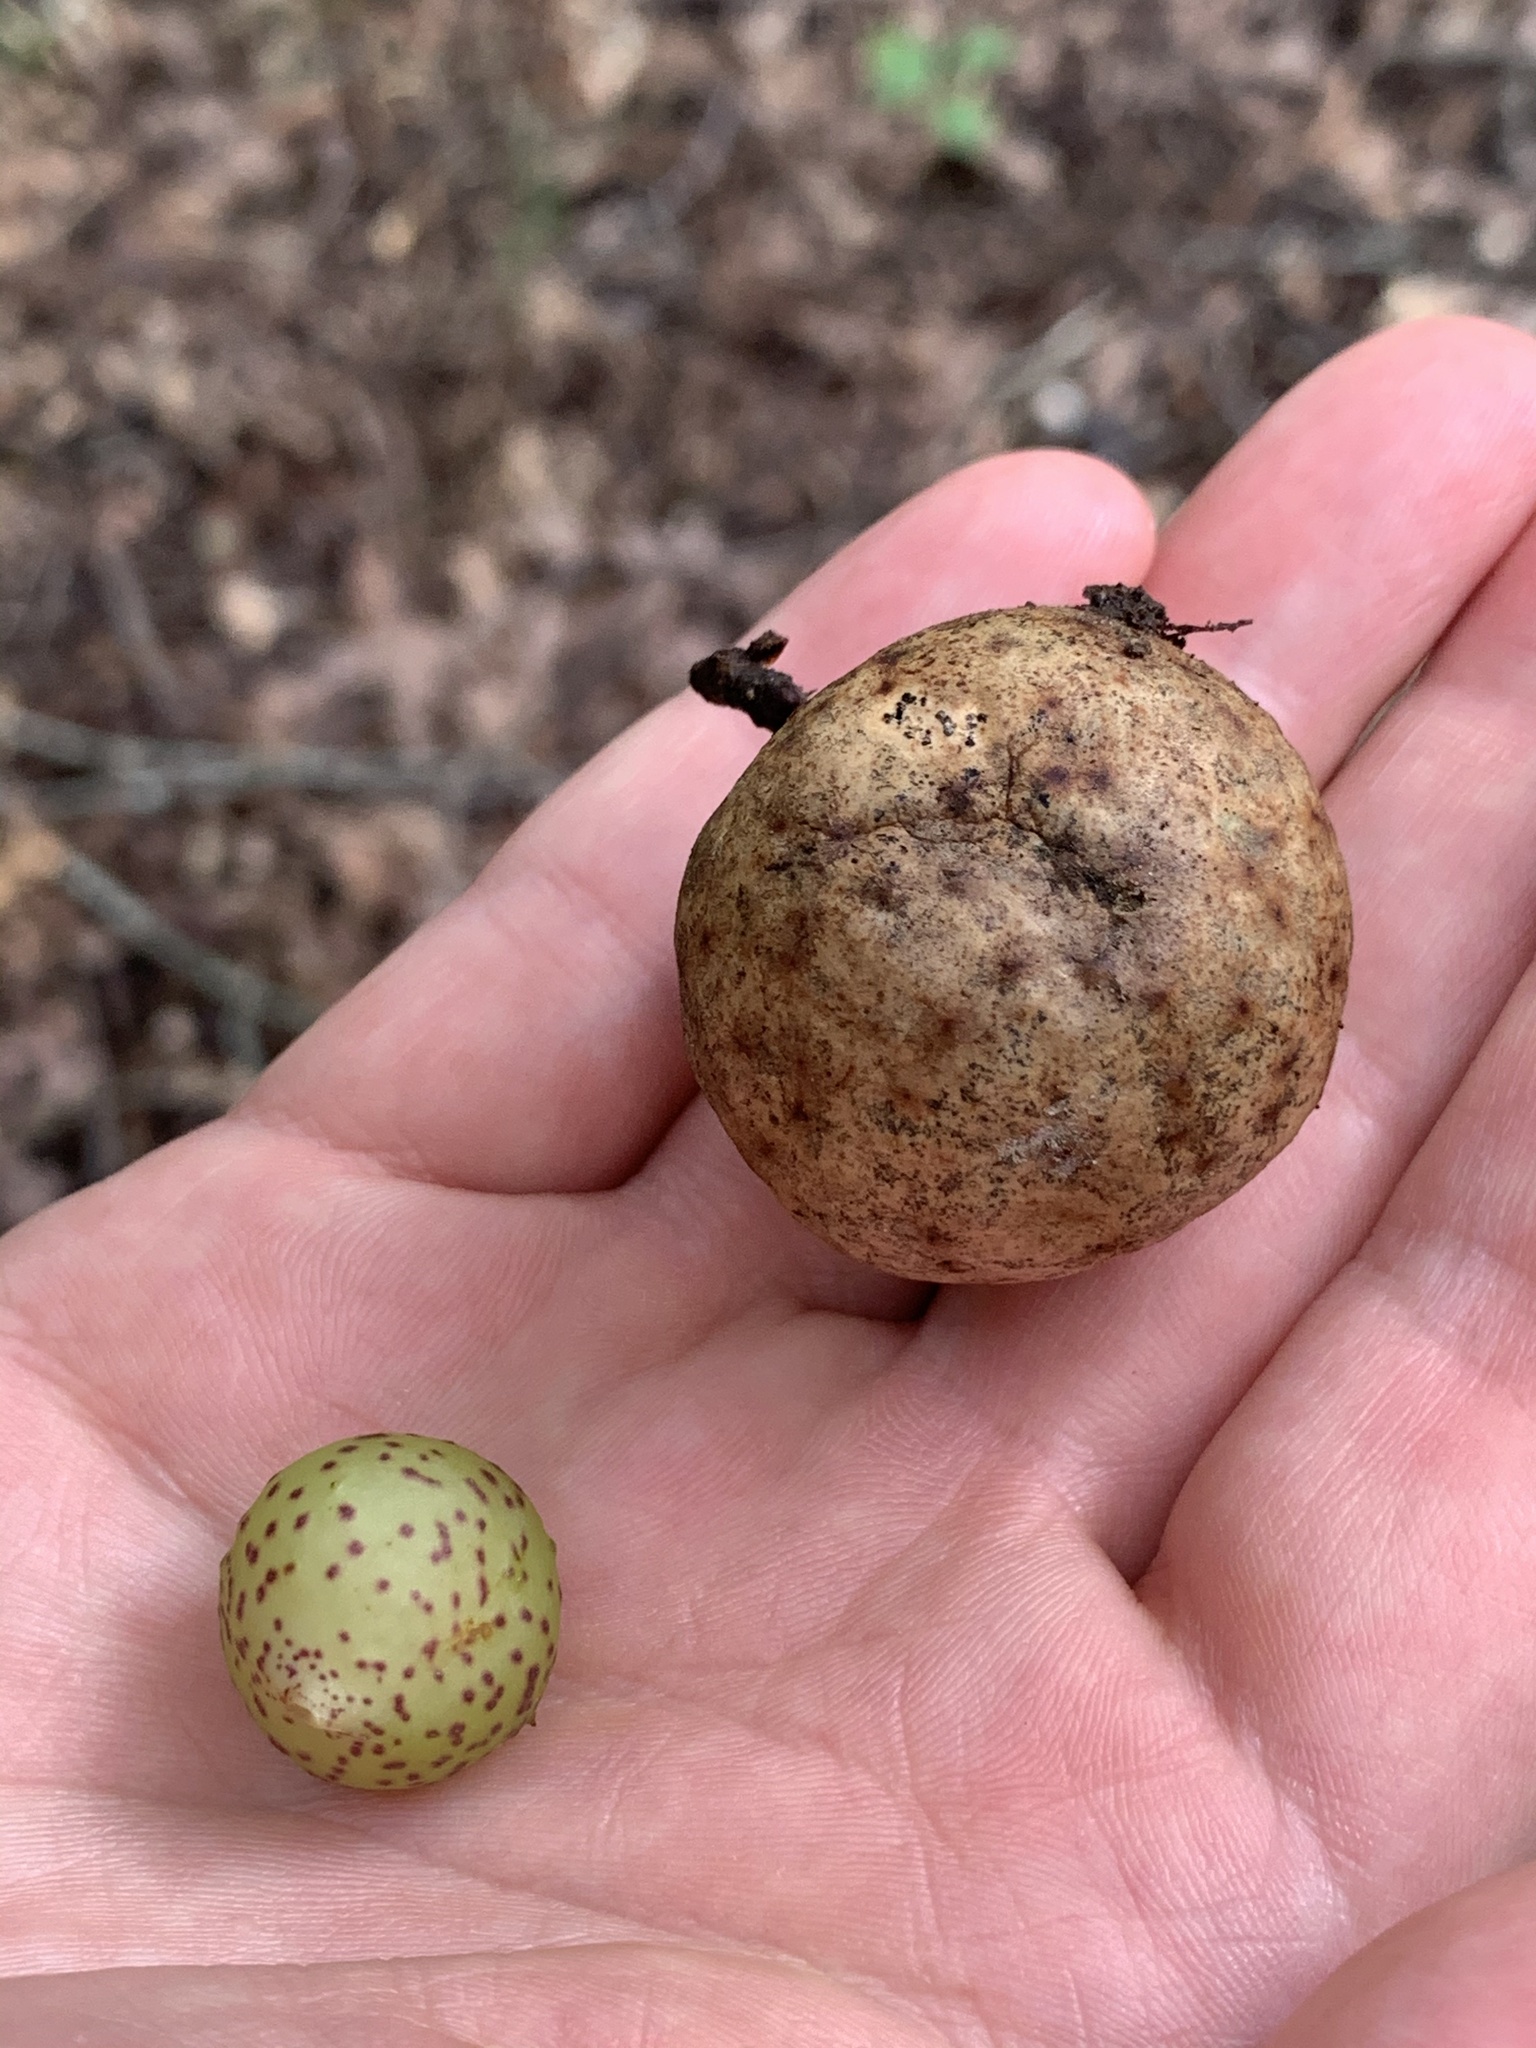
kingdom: Animalia
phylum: Arthropoda
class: Insecta
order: Hymenoptera
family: Cynipidae
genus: Amphibolips
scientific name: Amphibolips
